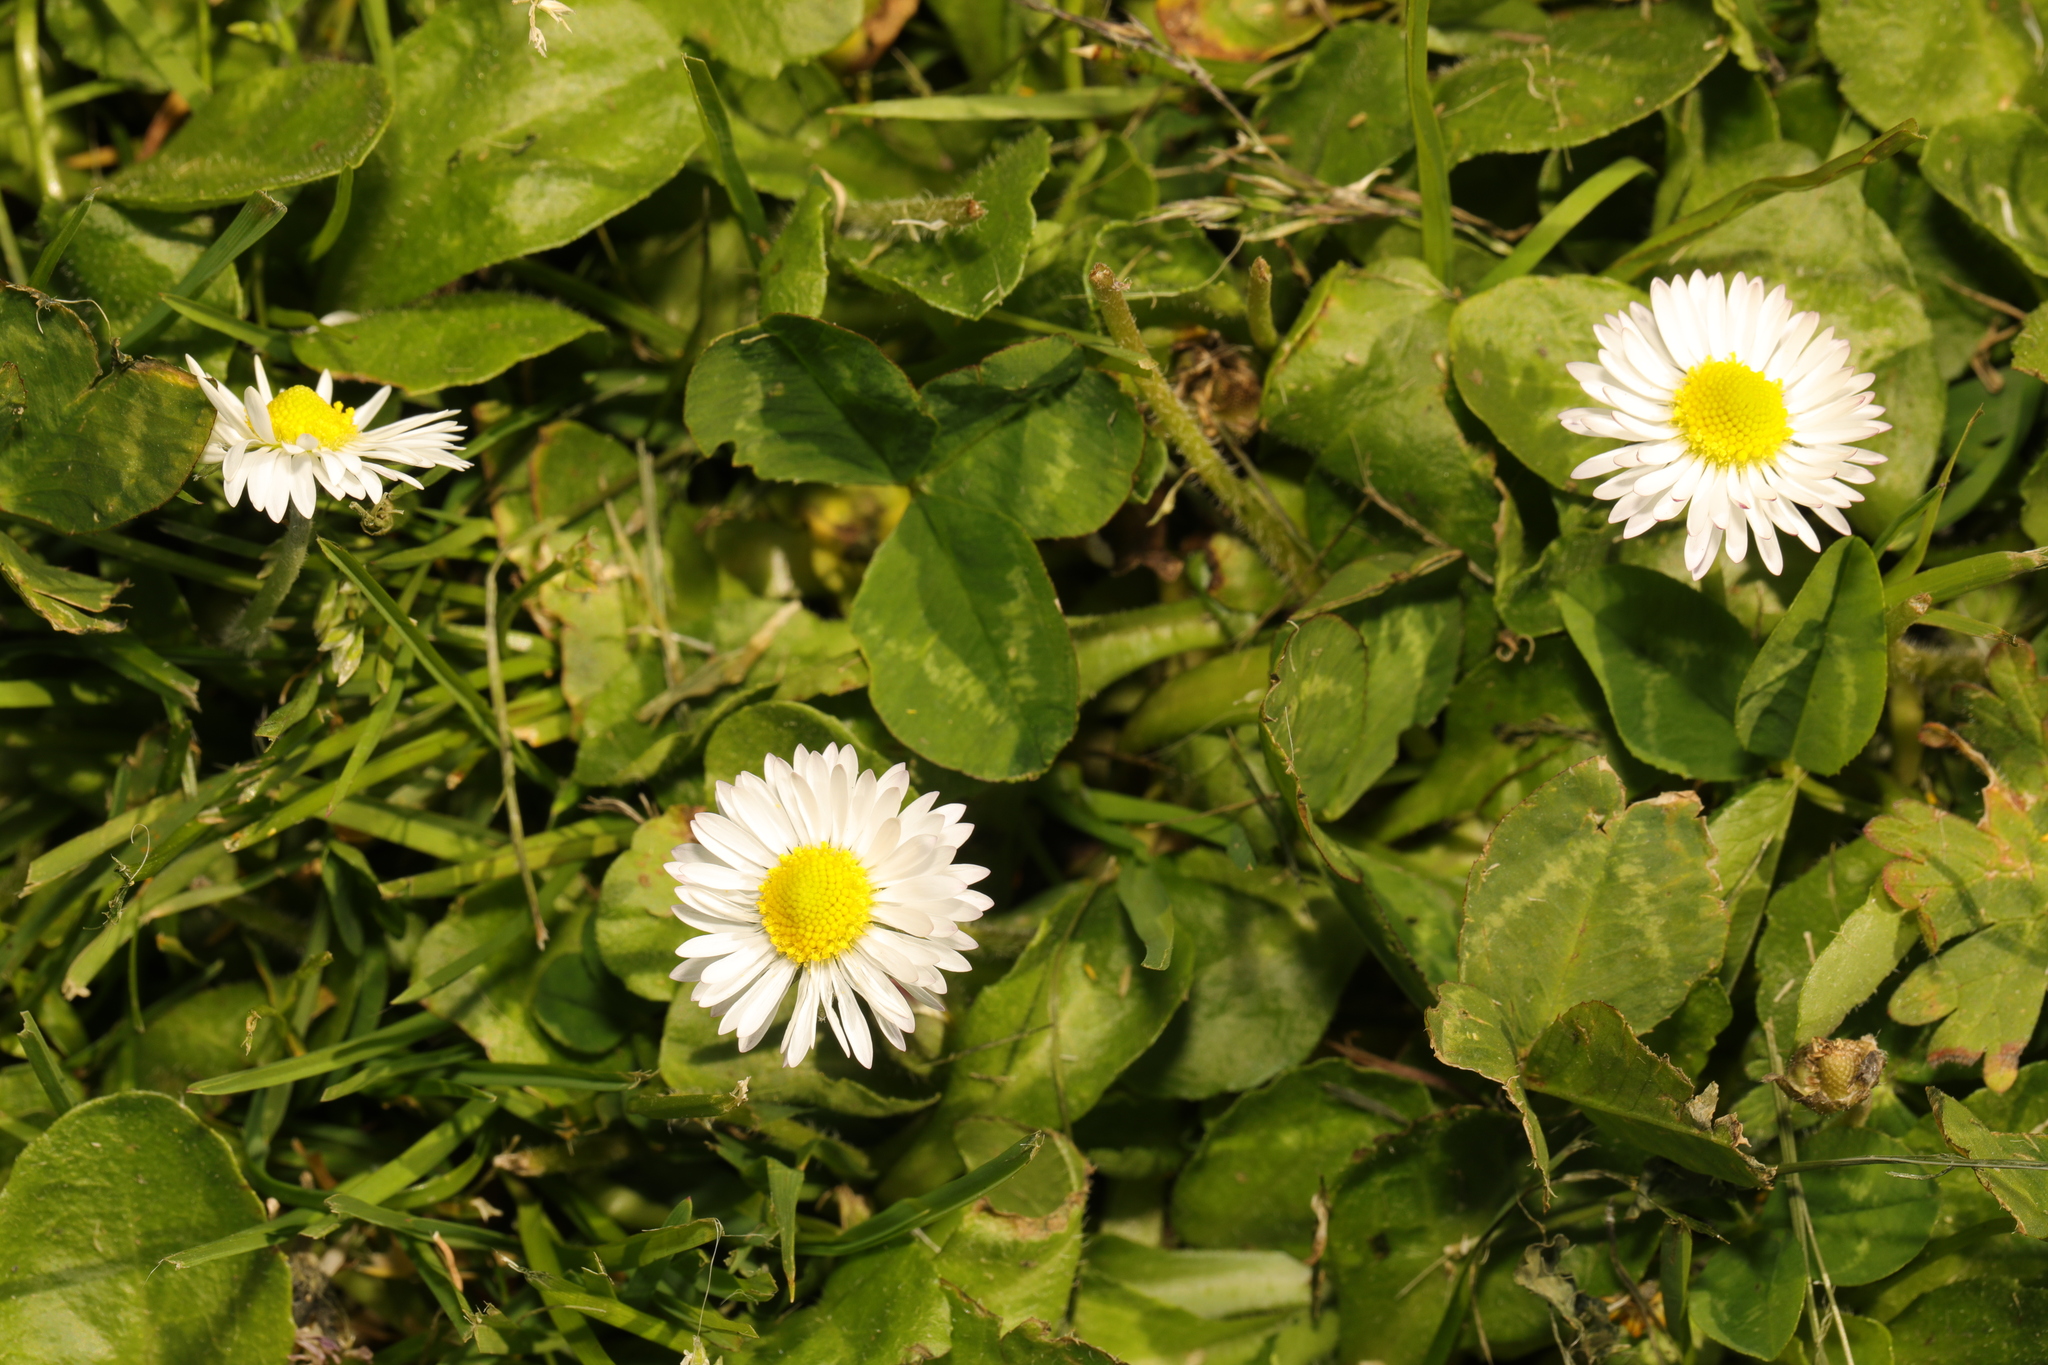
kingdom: Plantae
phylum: Tracheophyta
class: Magnoliopsida
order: Asterales
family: Asteraceae
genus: Bellis
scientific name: Bellis perennis
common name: Lawndaisy
